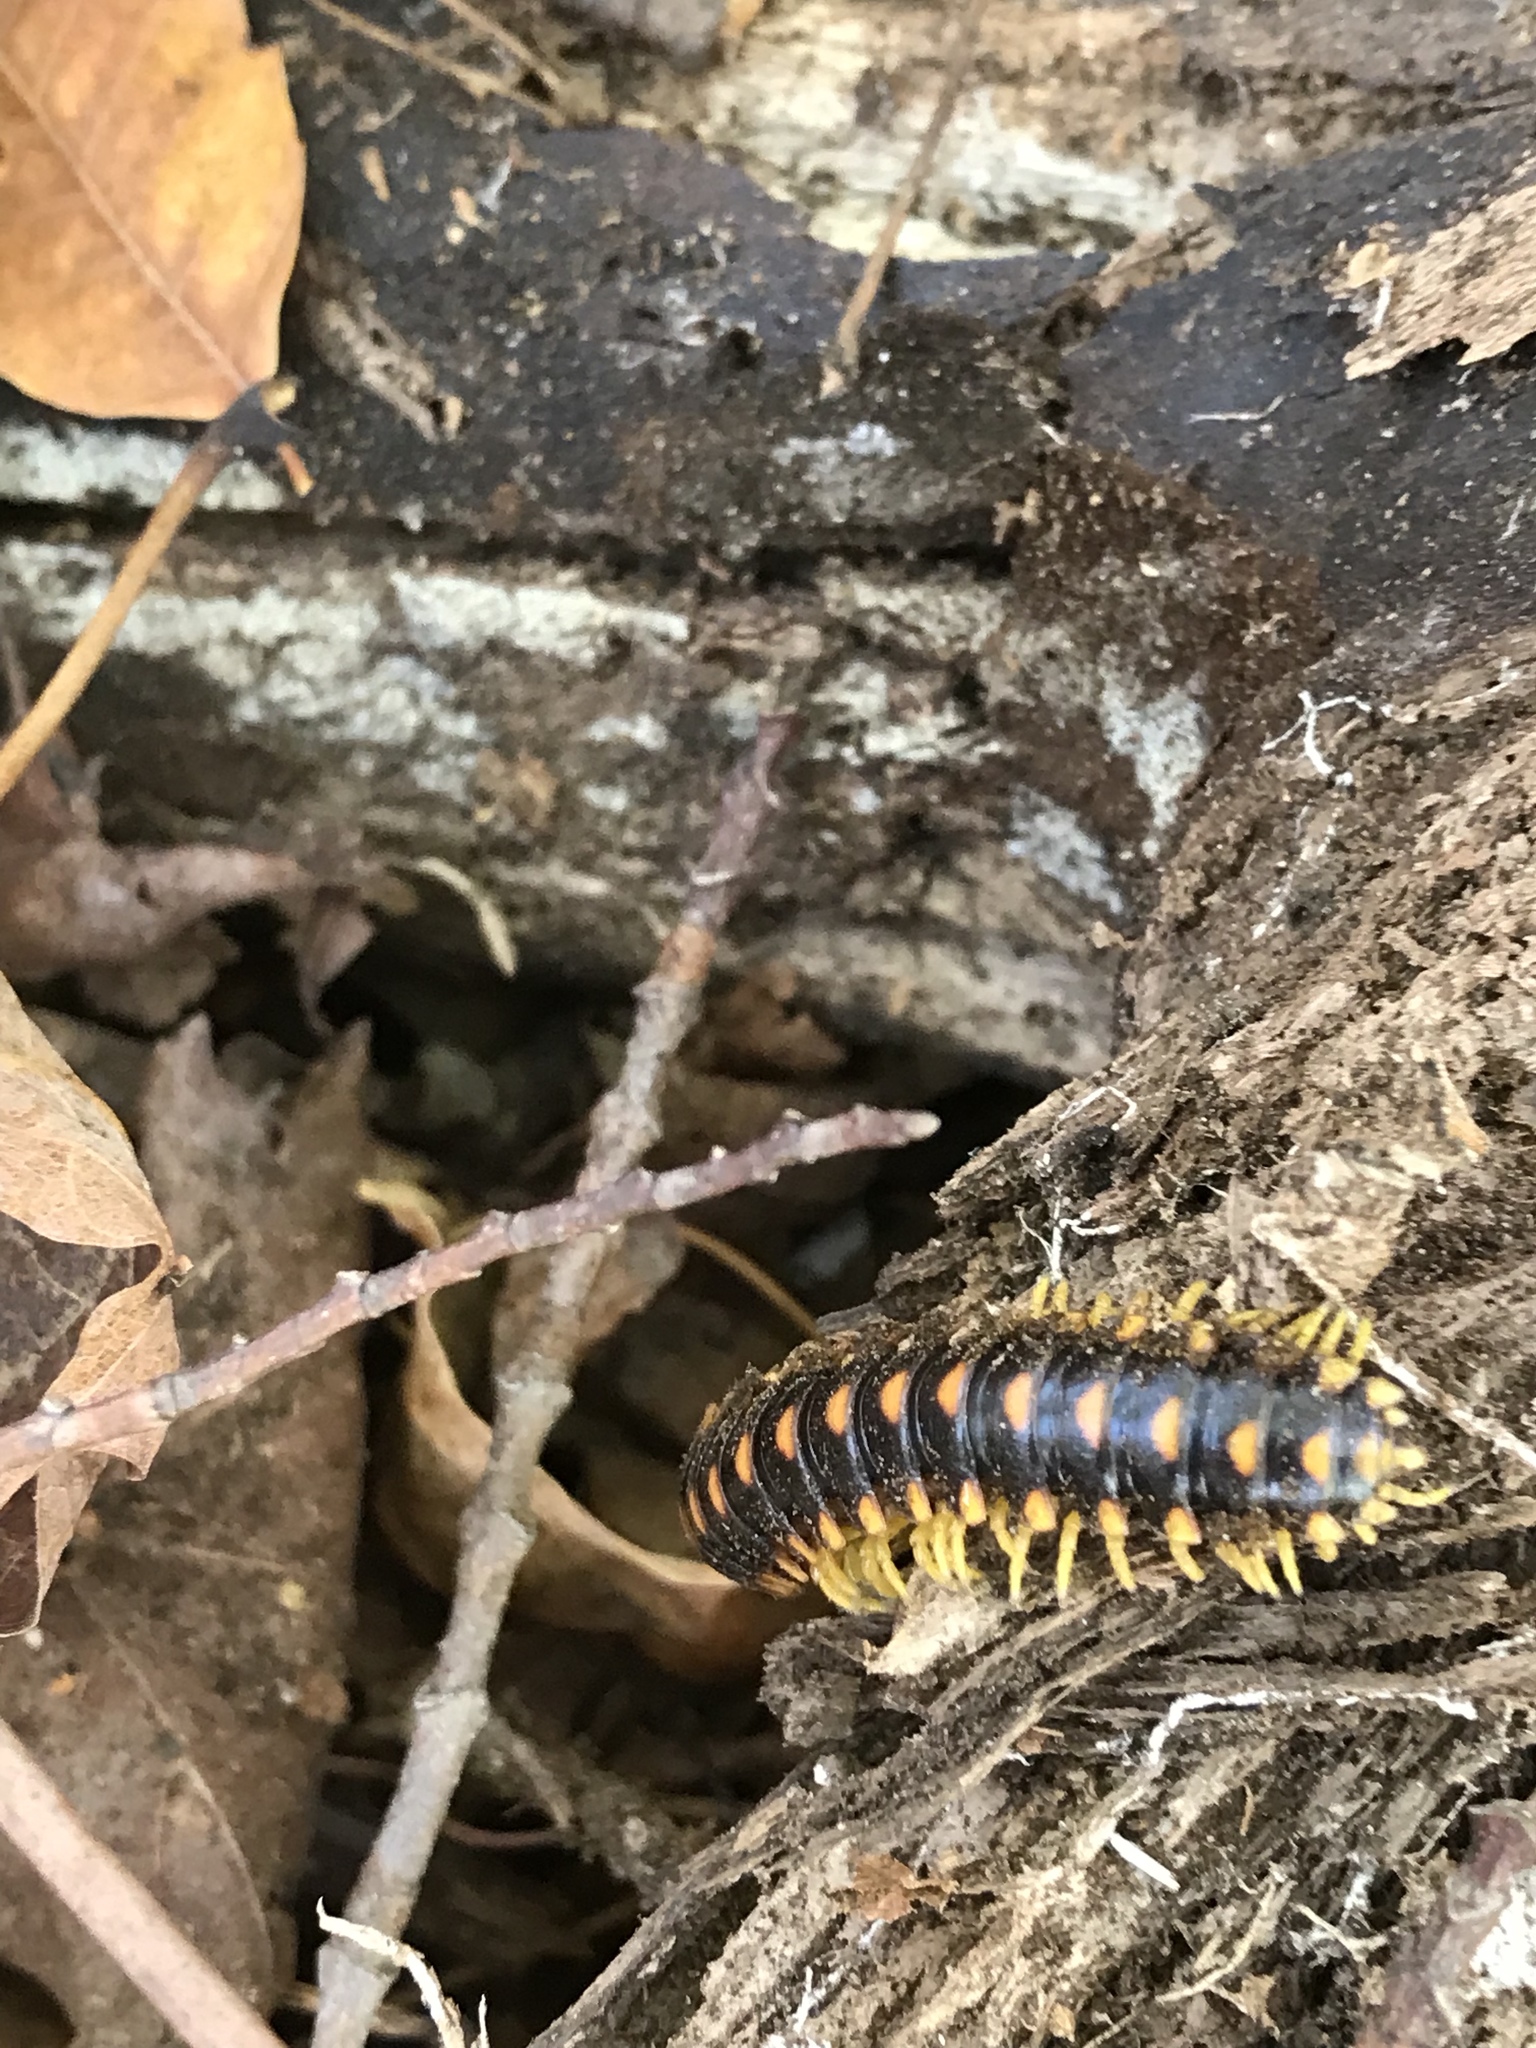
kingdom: Animalia
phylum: Arthropoda
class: Diplopoda
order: Polydesmida
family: Xystodesmidae
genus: Rudiloria
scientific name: Rudiloria trimaculata
